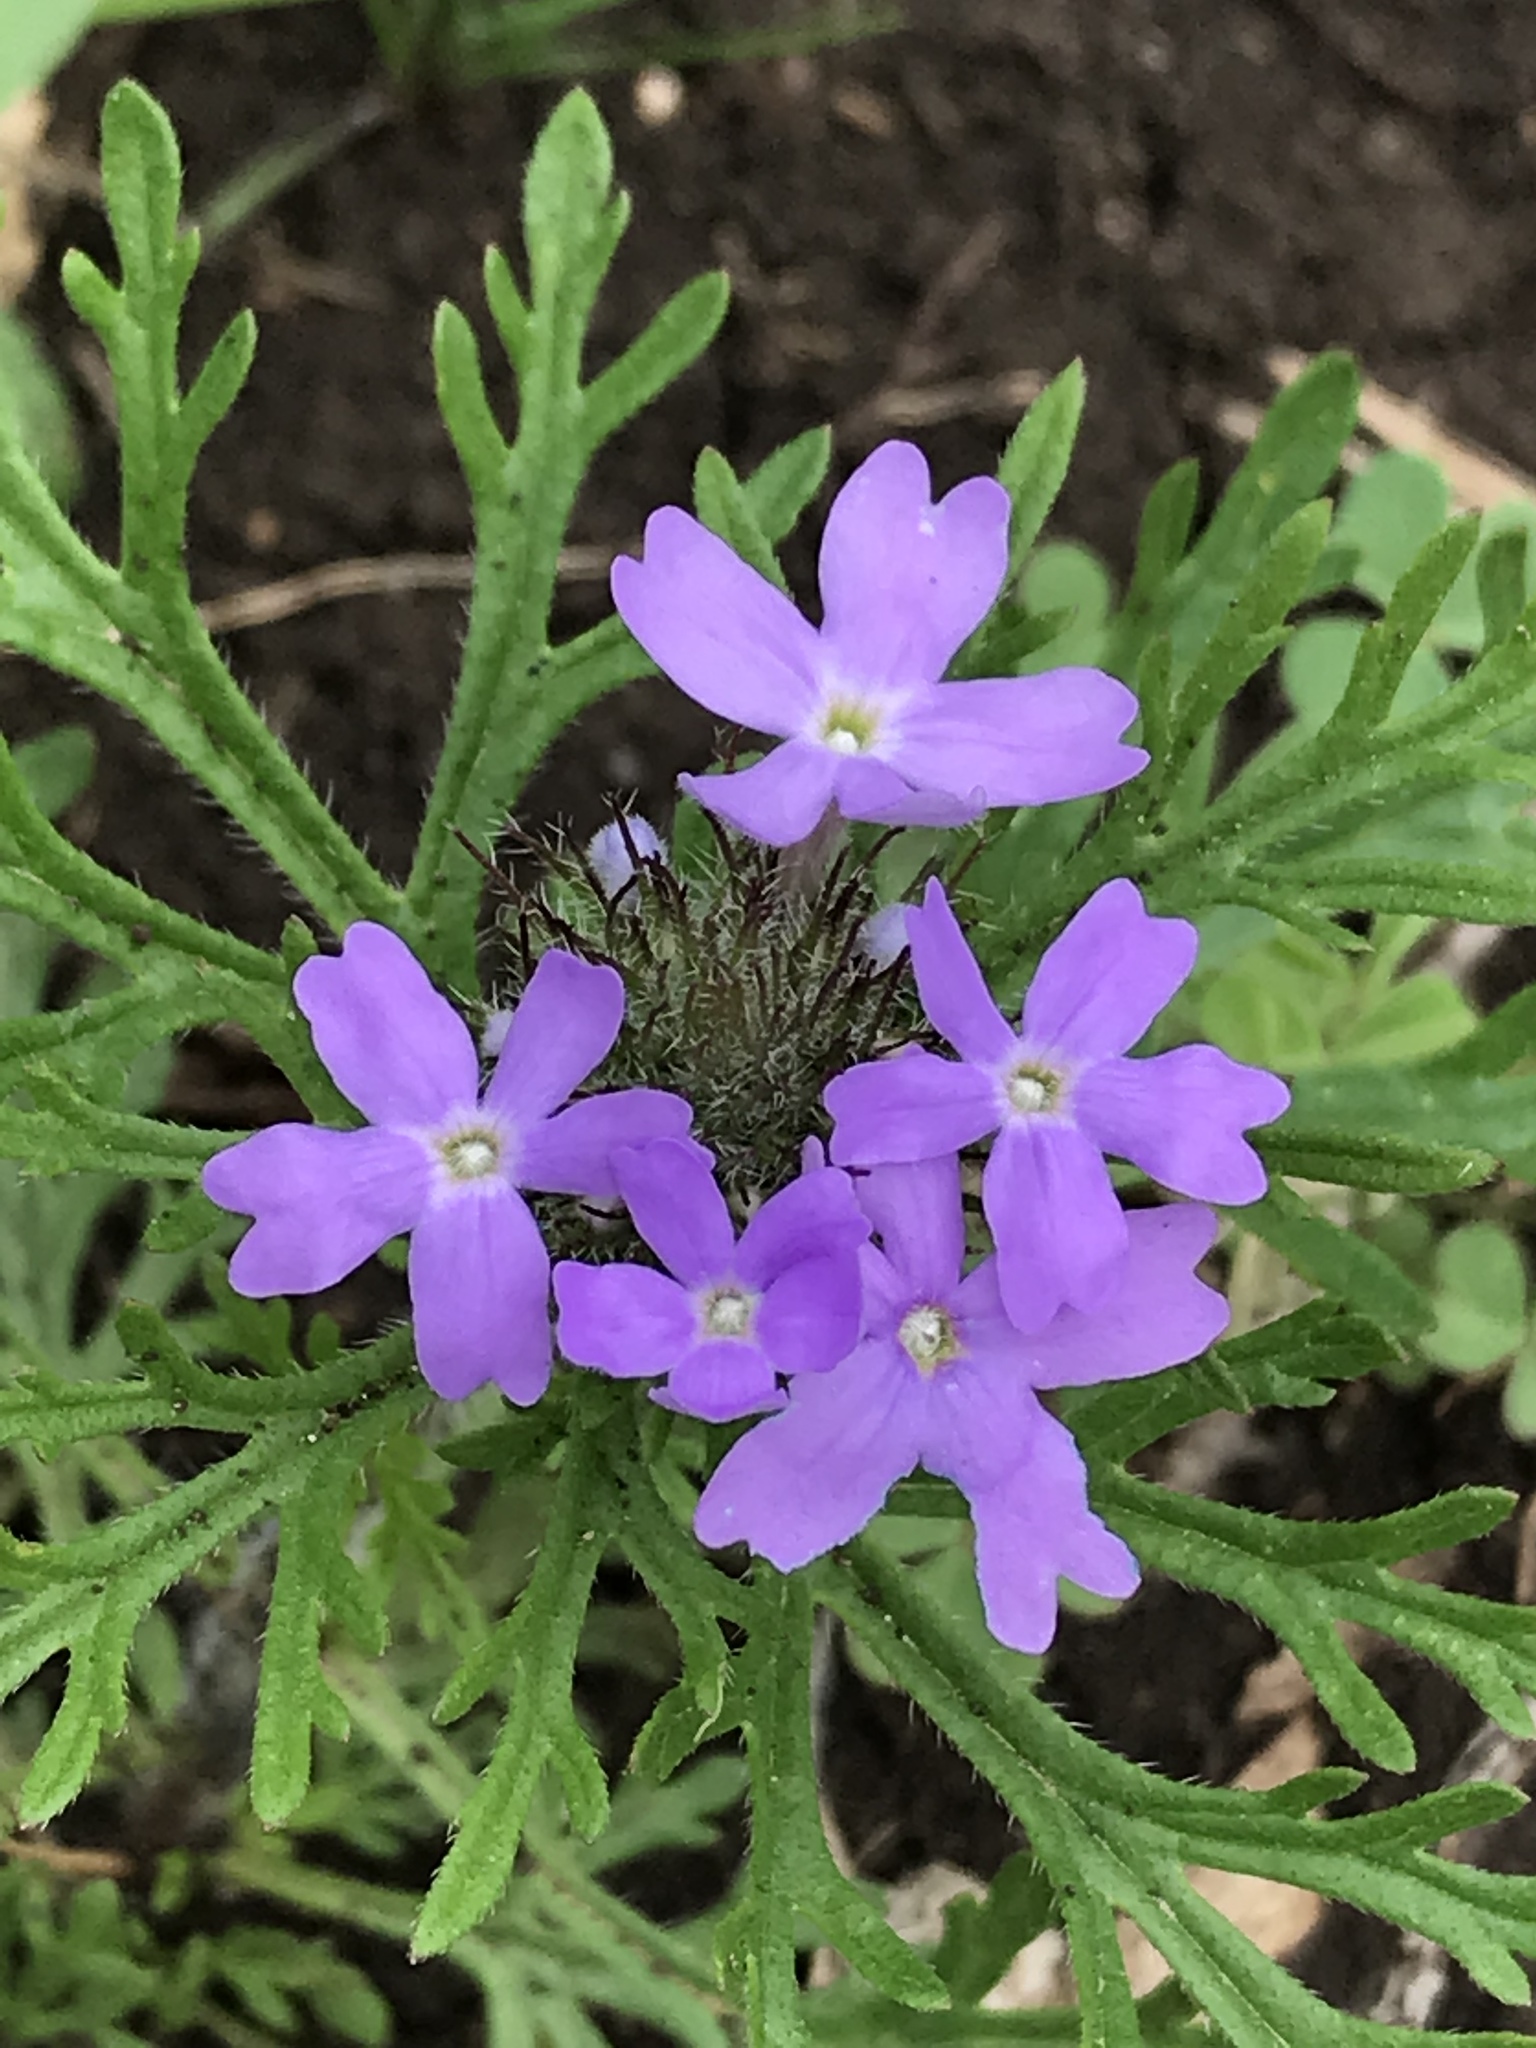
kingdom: Plantae
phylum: Tracheophyta
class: Magnoliopsida
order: Lamiales
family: Verbenaceae
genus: Verbena
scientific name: Verbena bipinnatifida
